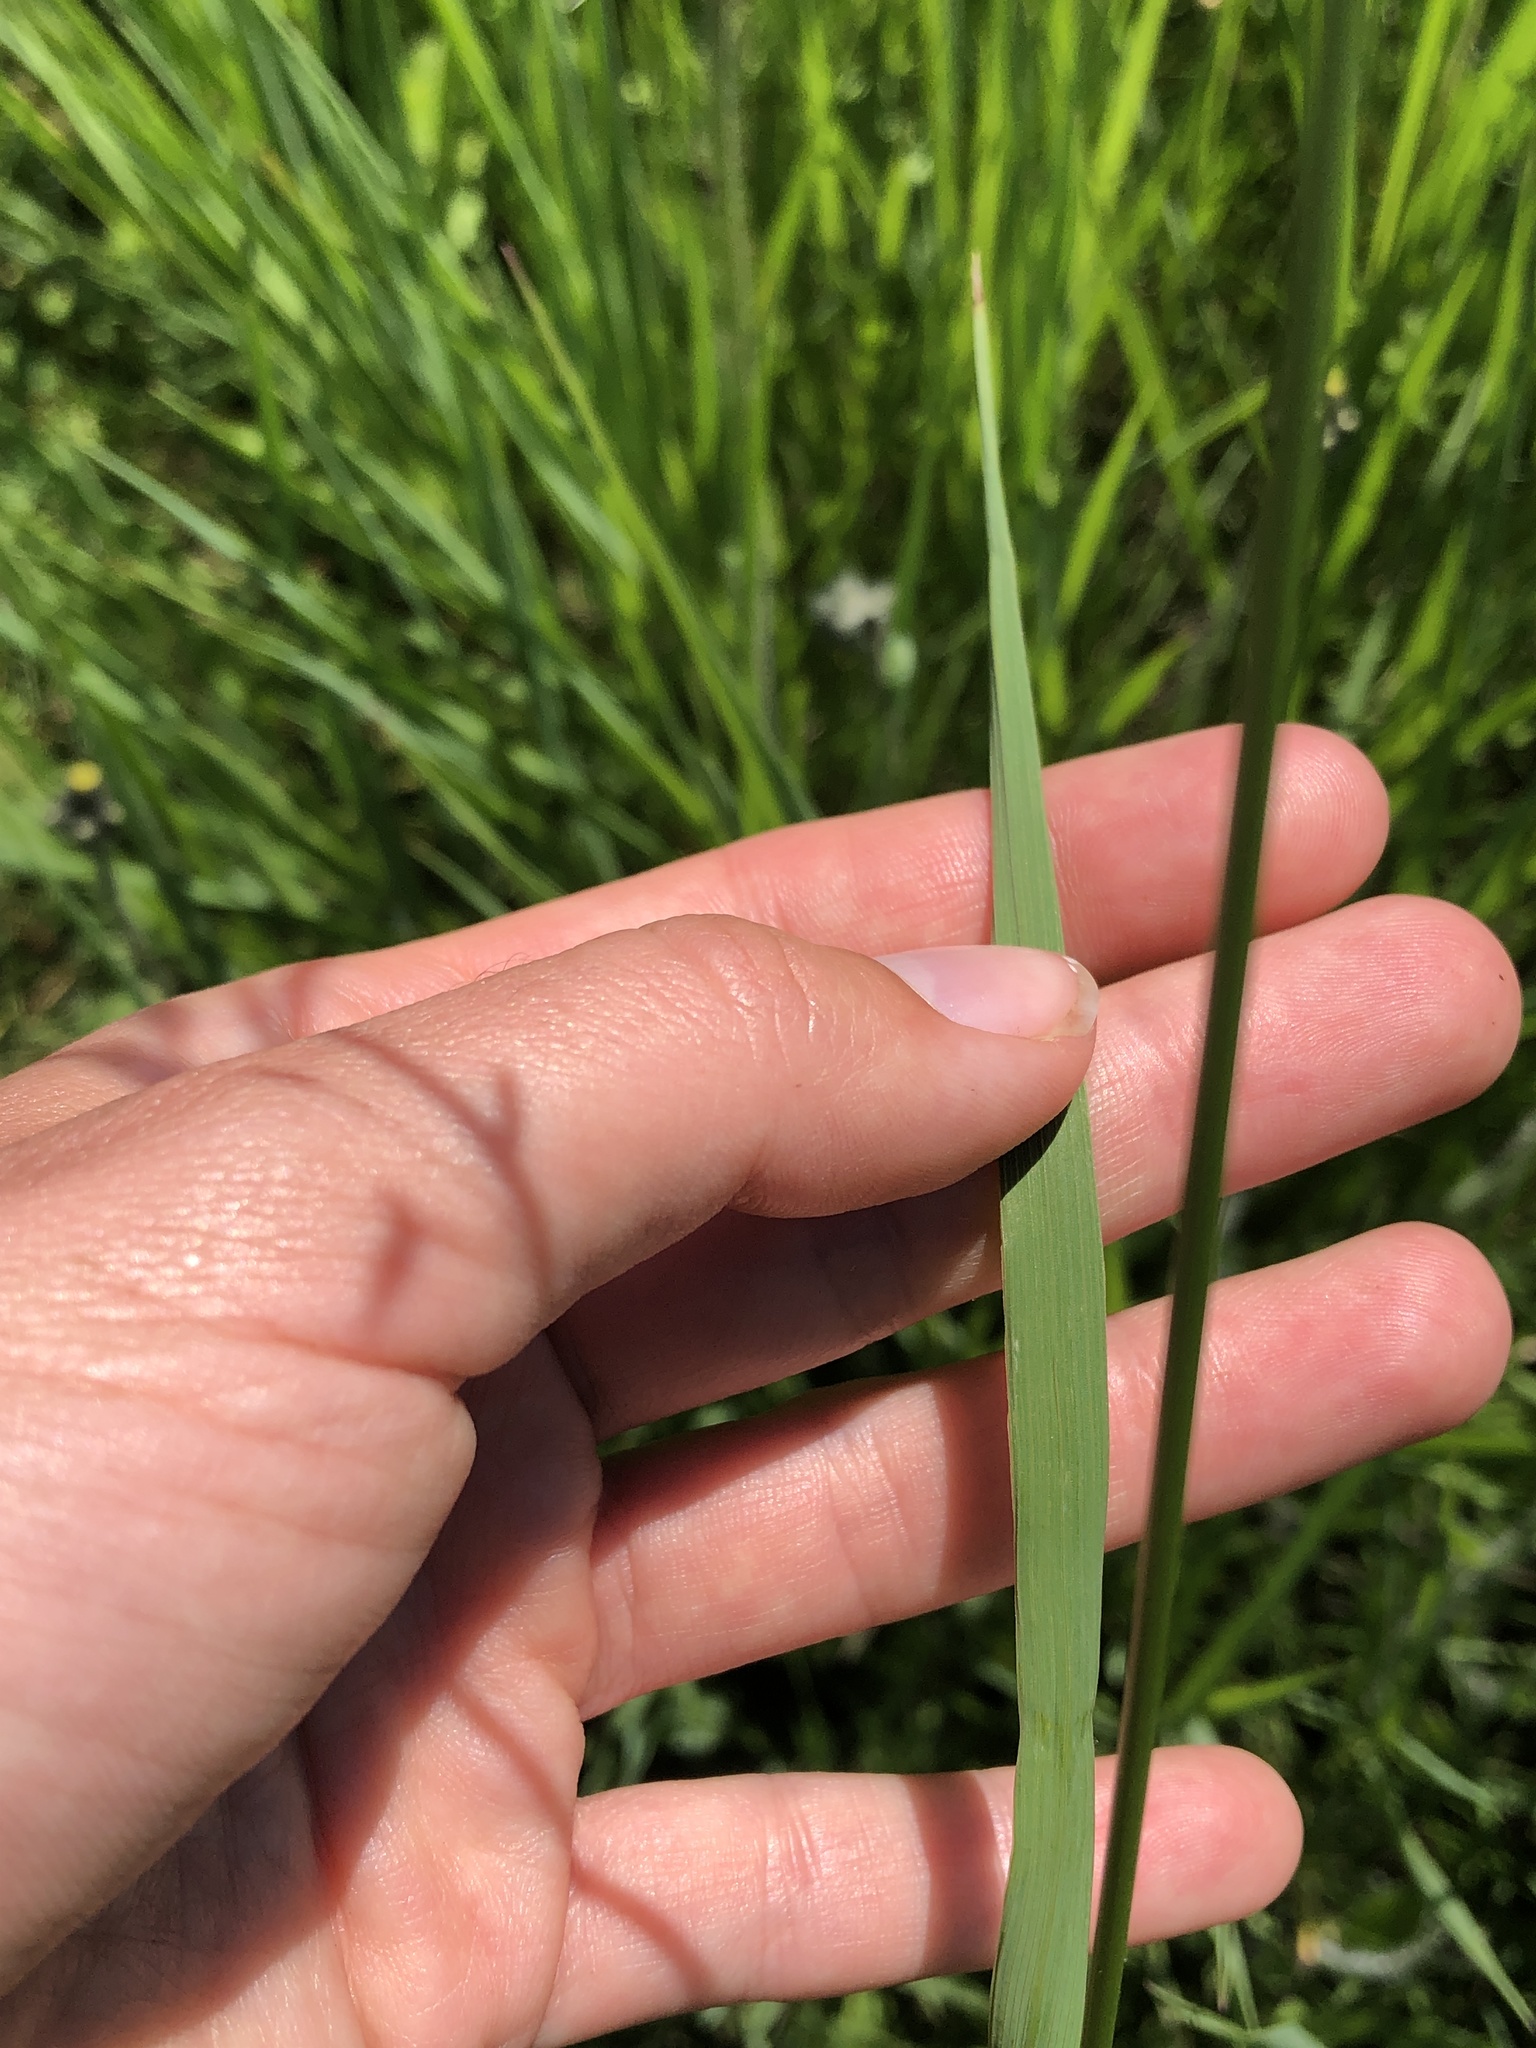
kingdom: Plantae
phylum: Tracheophyta
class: Liliopsida
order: Poales
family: Poaceae
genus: Bromus
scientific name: Bromus inermis
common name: Smooth brome
